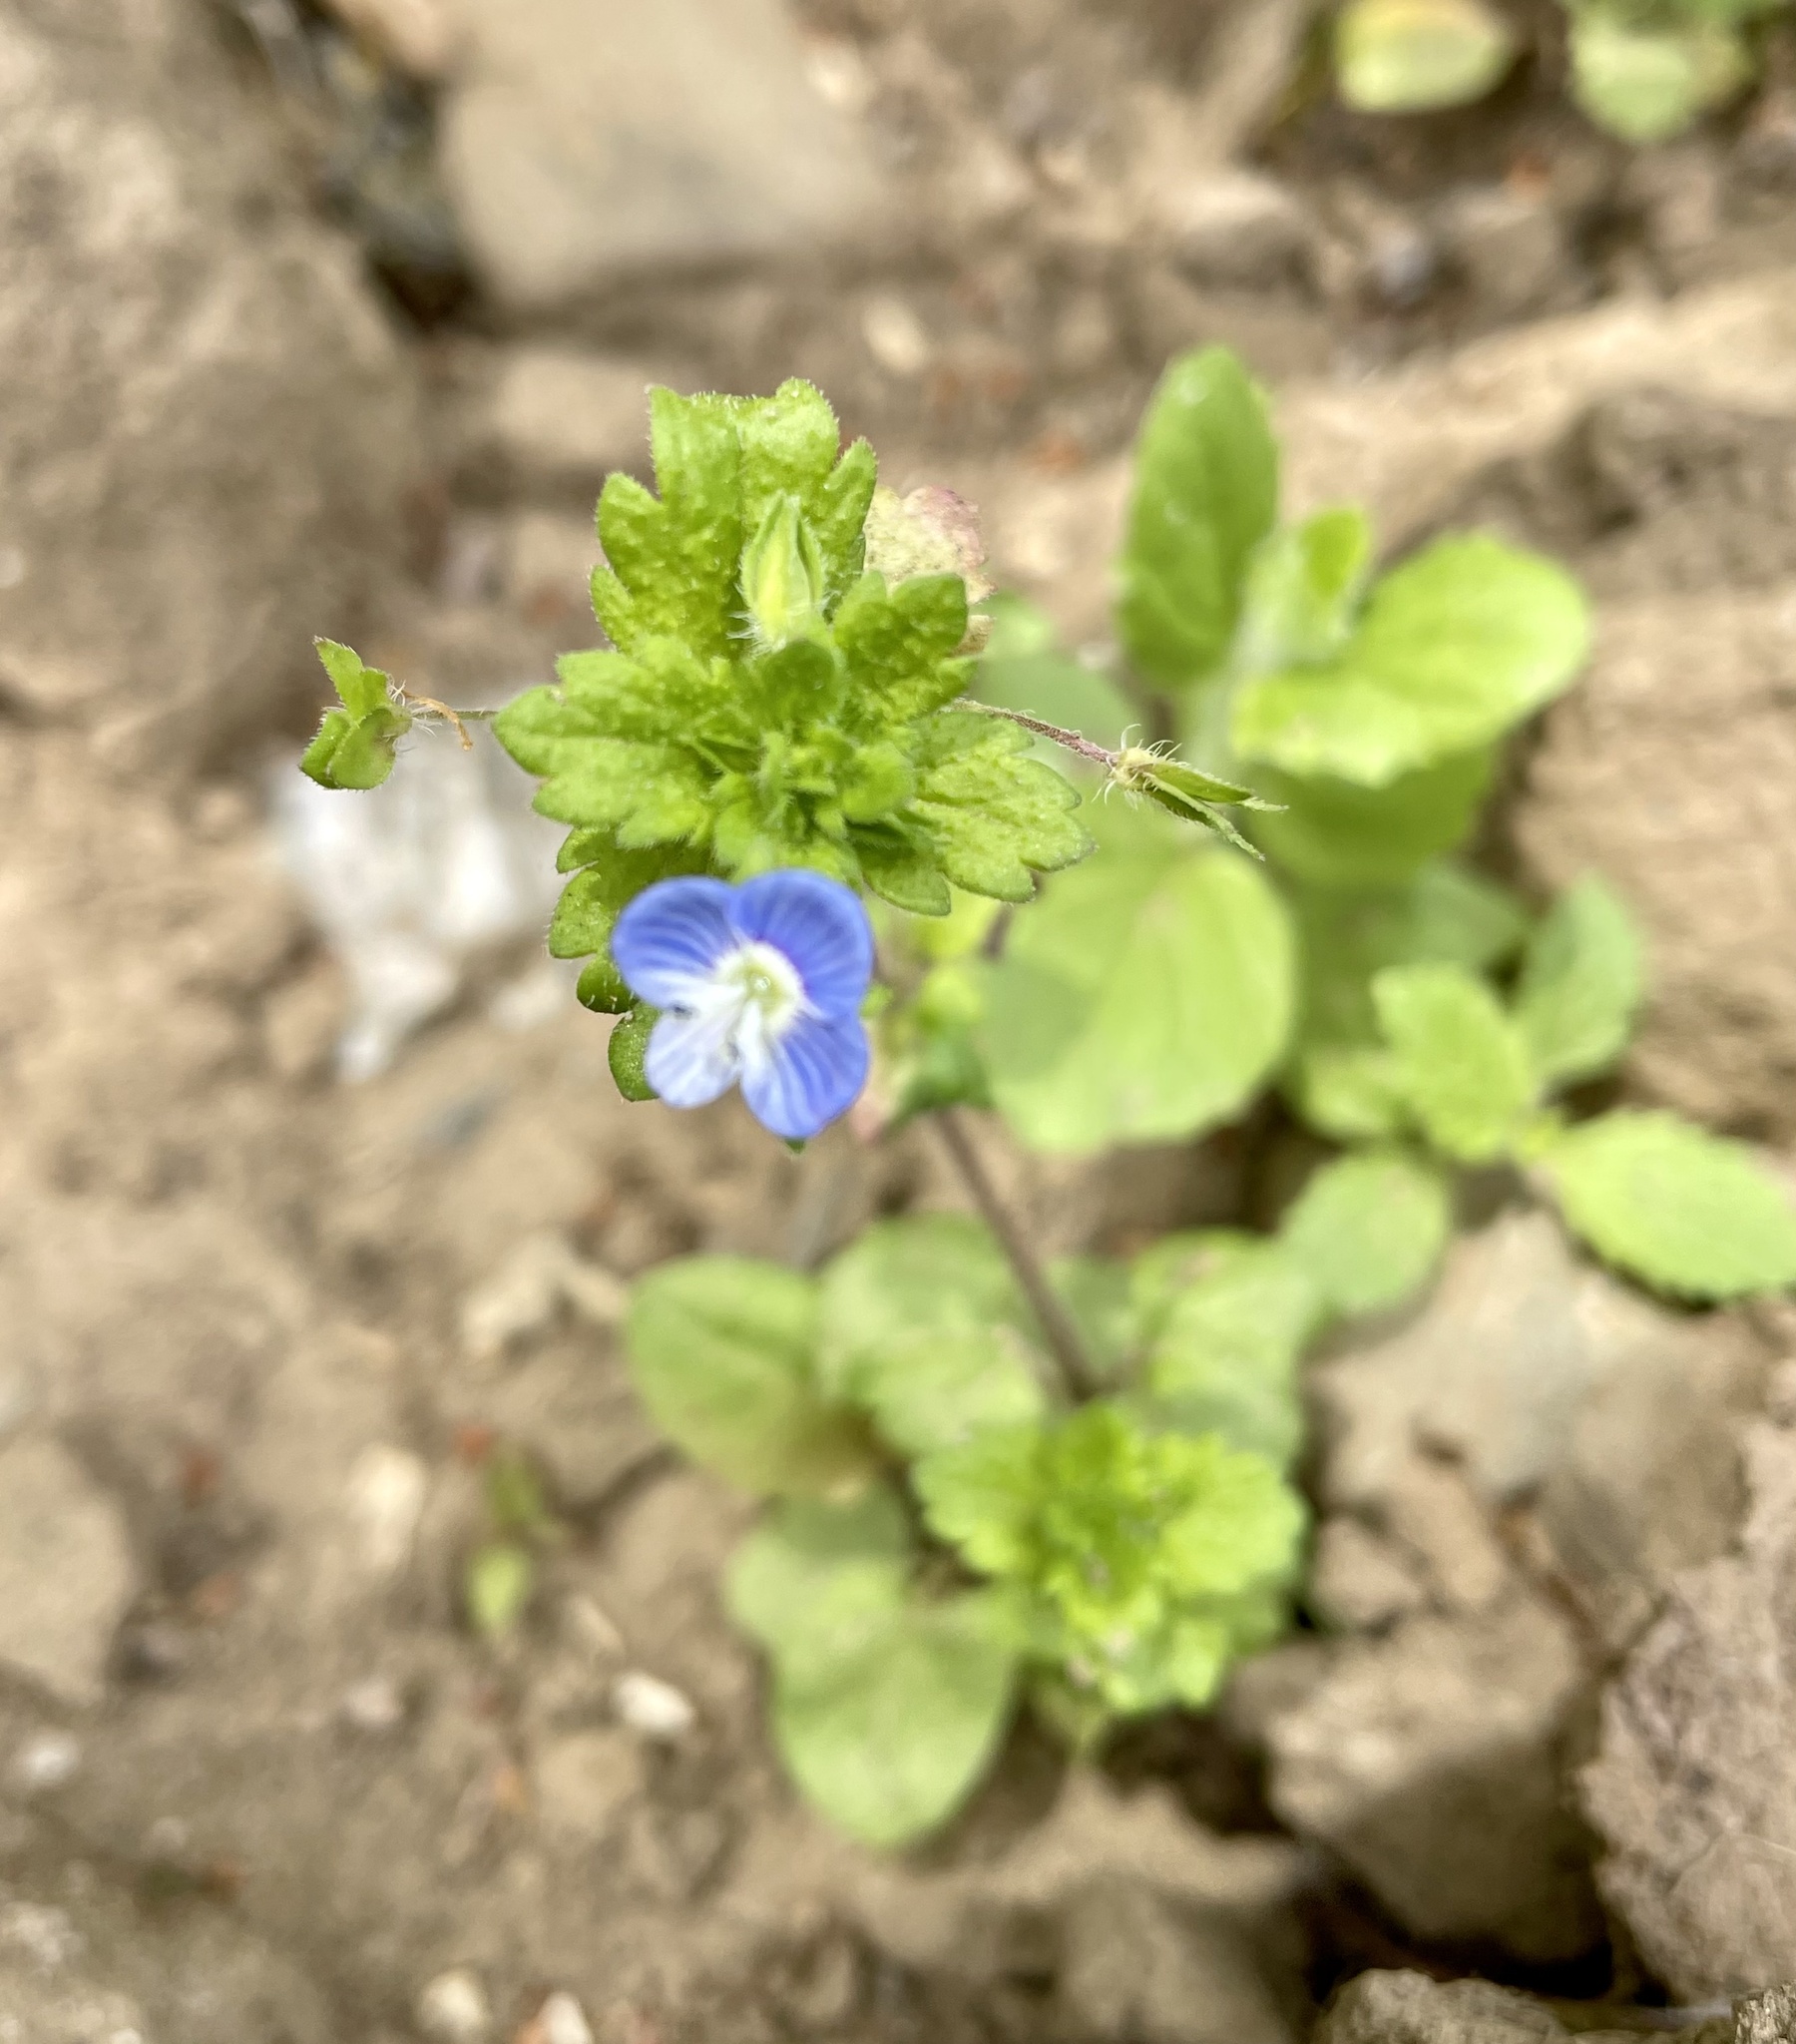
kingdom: Plantae
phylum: Tracheophyta
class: Magnoliopsida
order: Lamiales
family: Plantaginaceae
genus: Veronica
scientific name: Veronica persica
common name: Common field-speedwell
